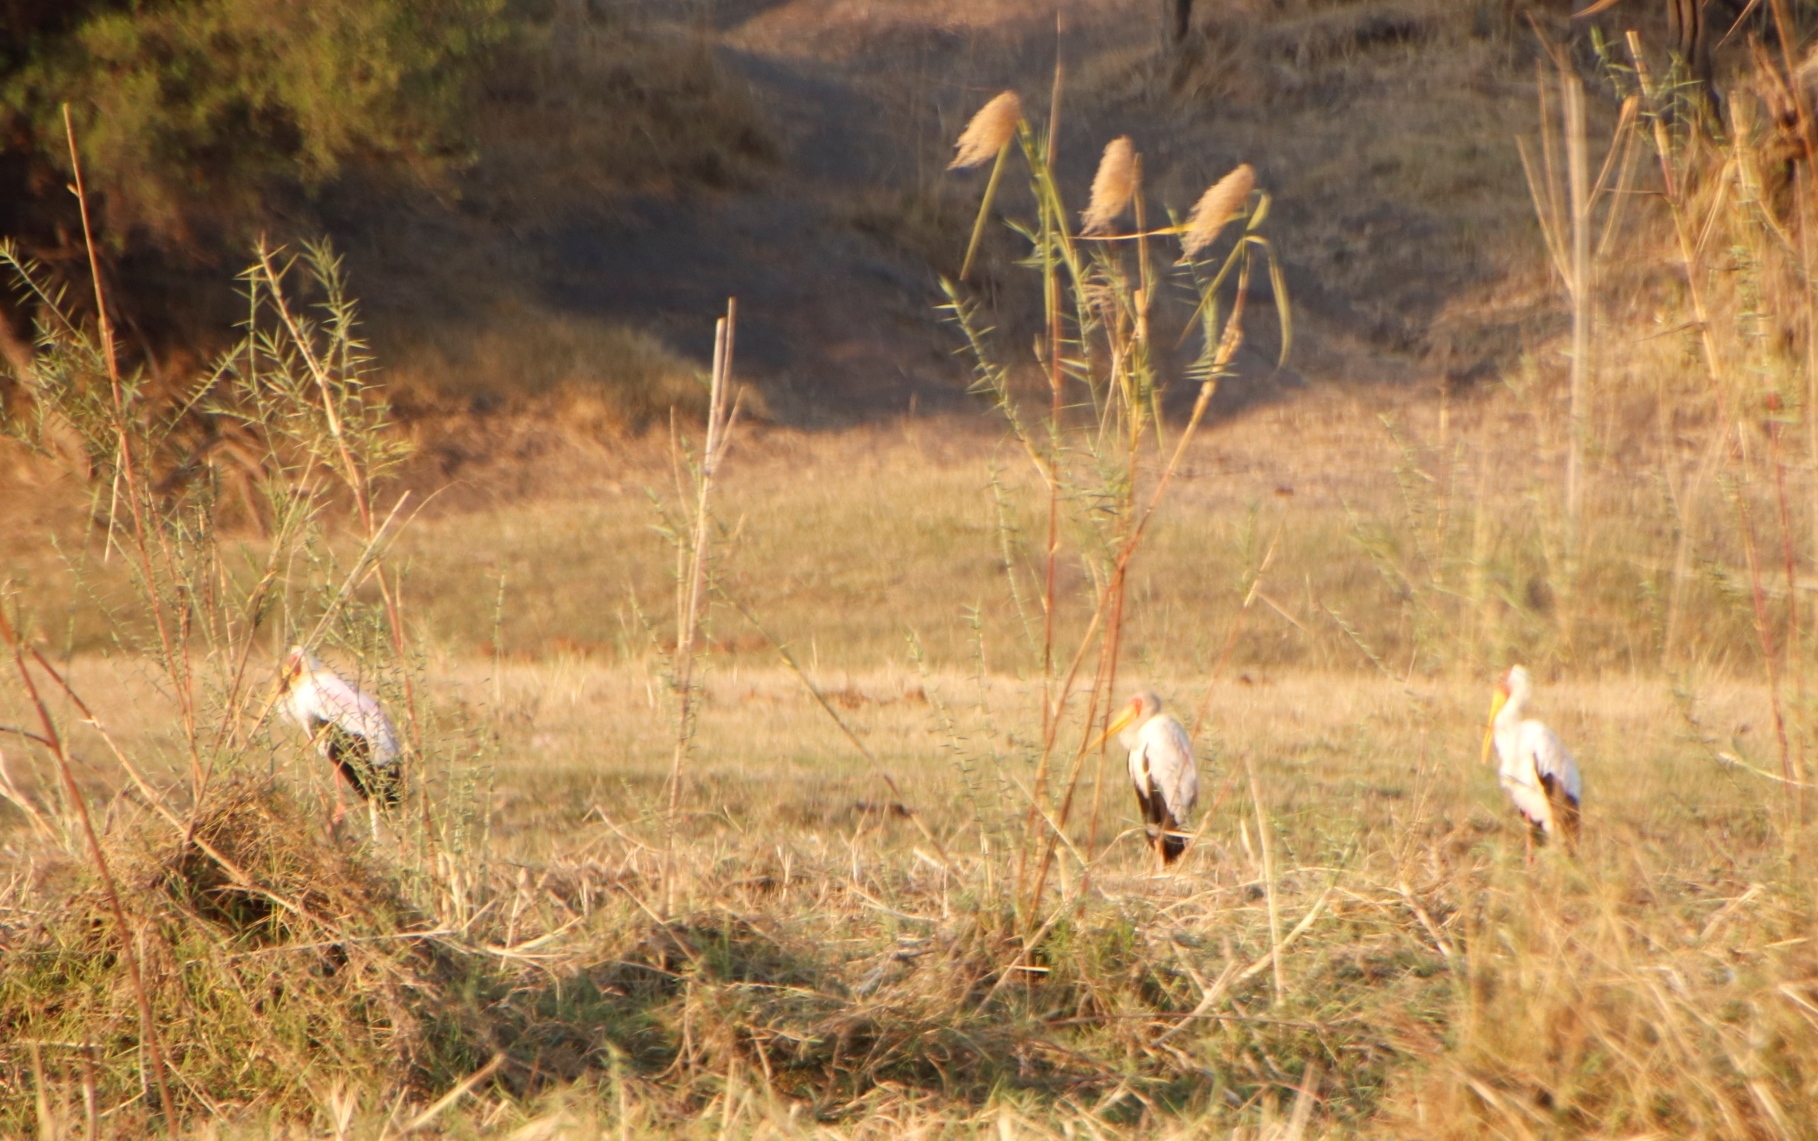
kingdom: Animalia
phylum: Chordata
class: Aves
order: Ciconiiformes
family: Ciconiidae
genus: Mycteria
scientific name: Mycteria ibis
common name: Yellow-billed stork
